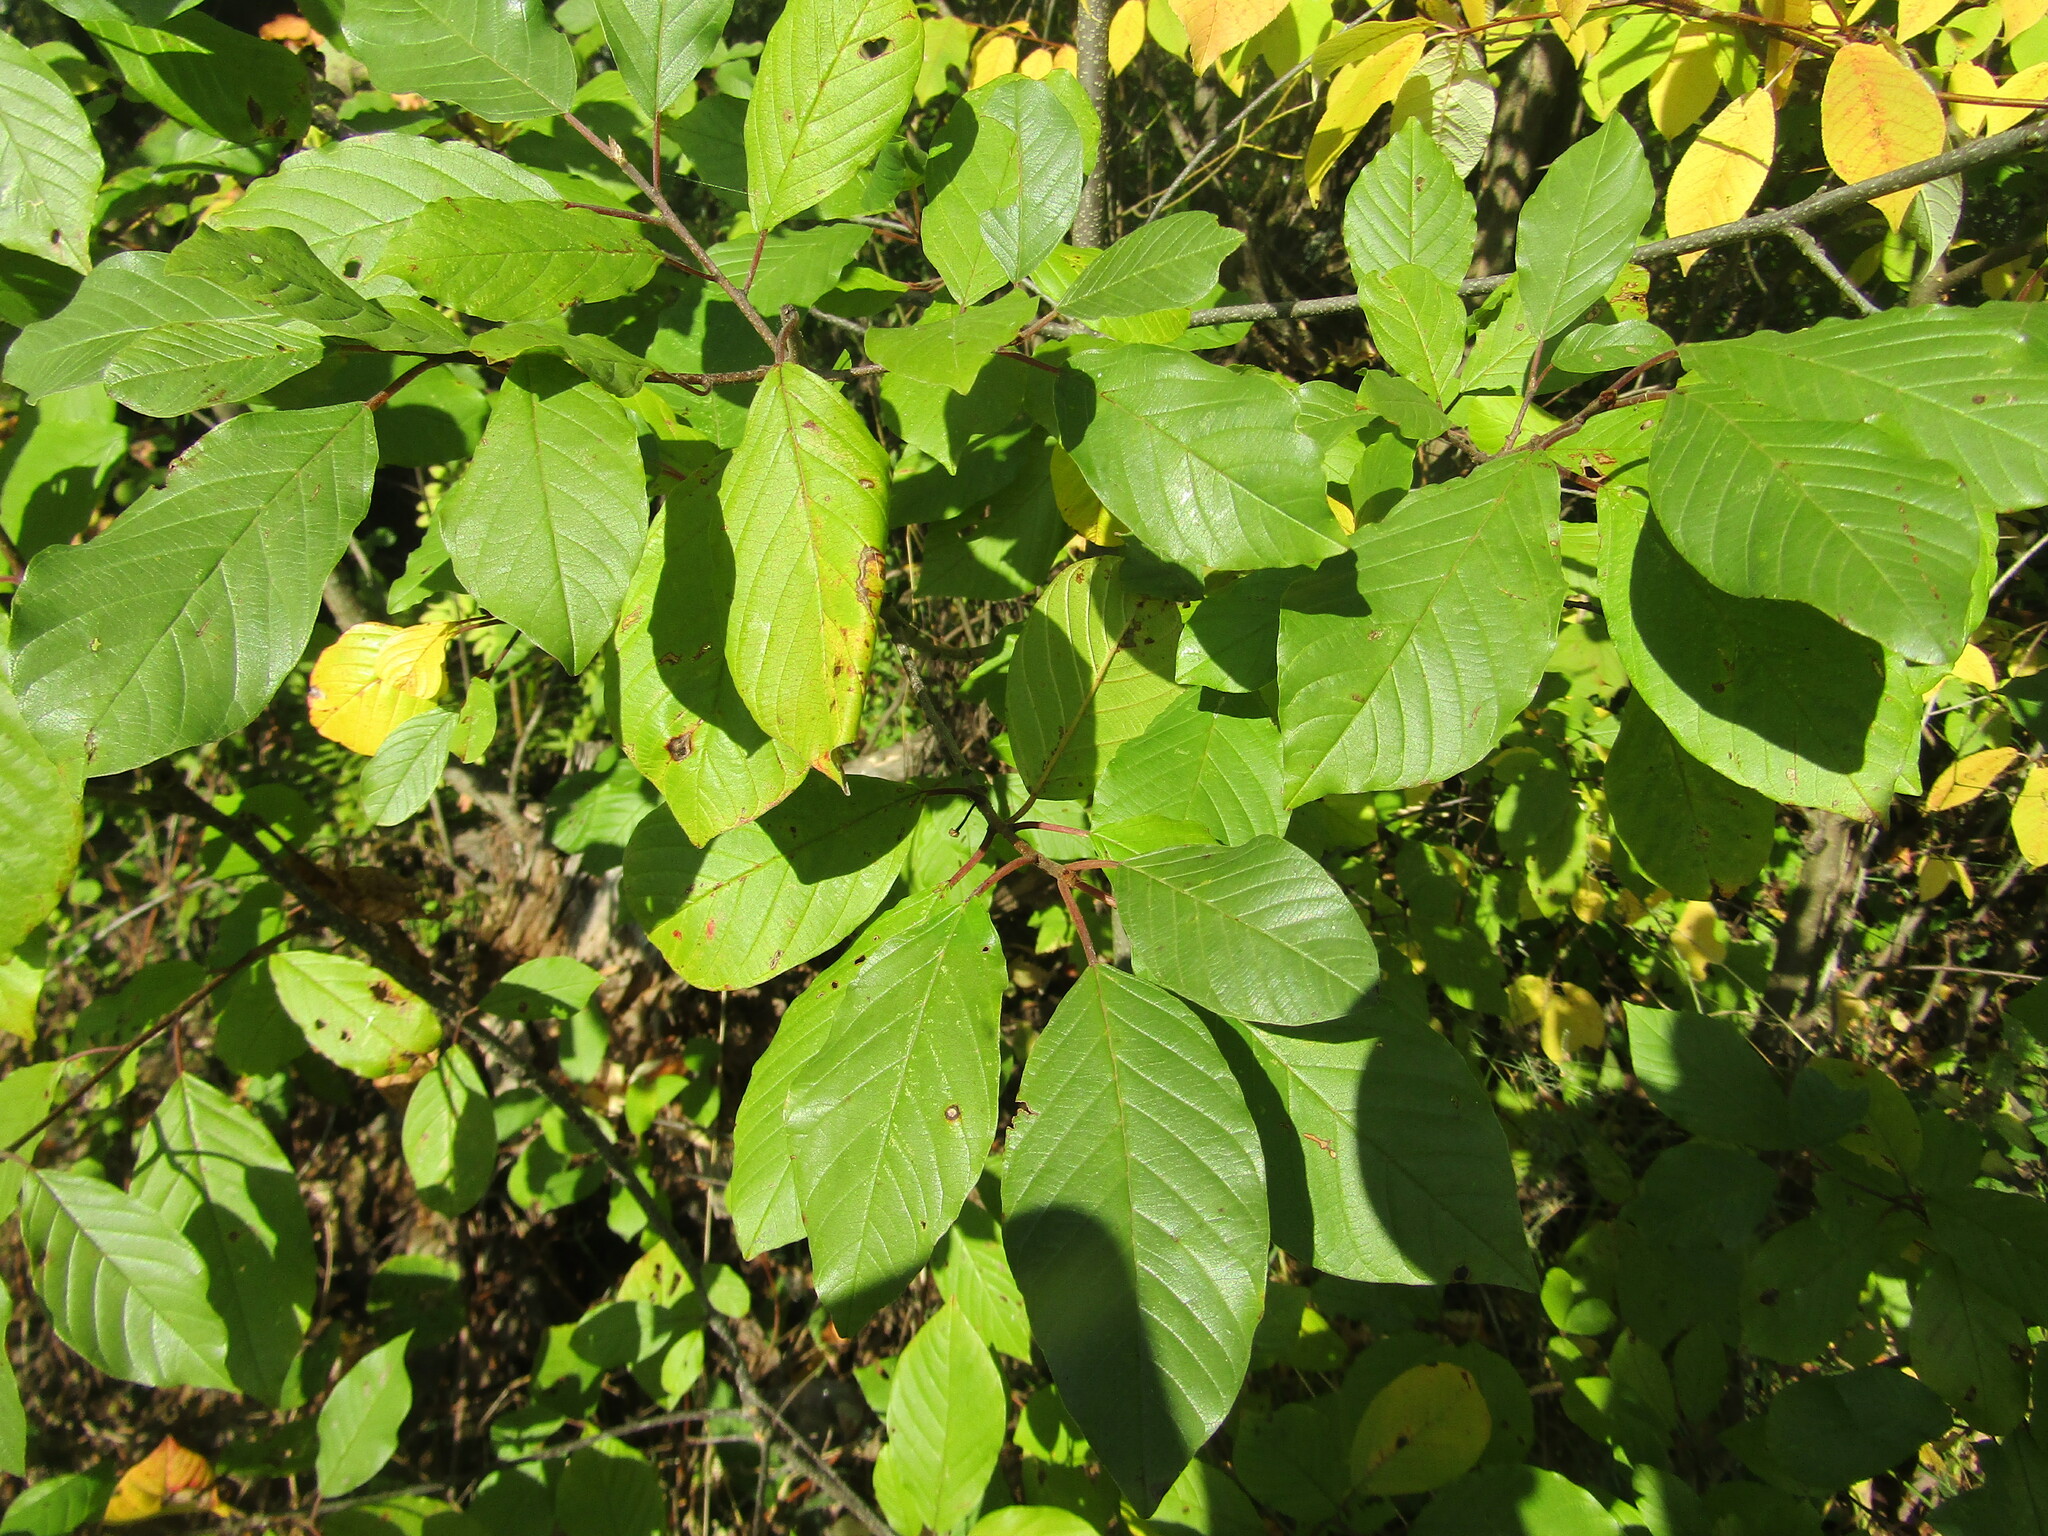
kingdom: Plantae
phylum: Tracheophyta
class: Magnoliopsida
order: Rosales
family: Rhamnaceae
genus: Frangula
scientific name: Frangula alnus
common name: Alder buckthorn
